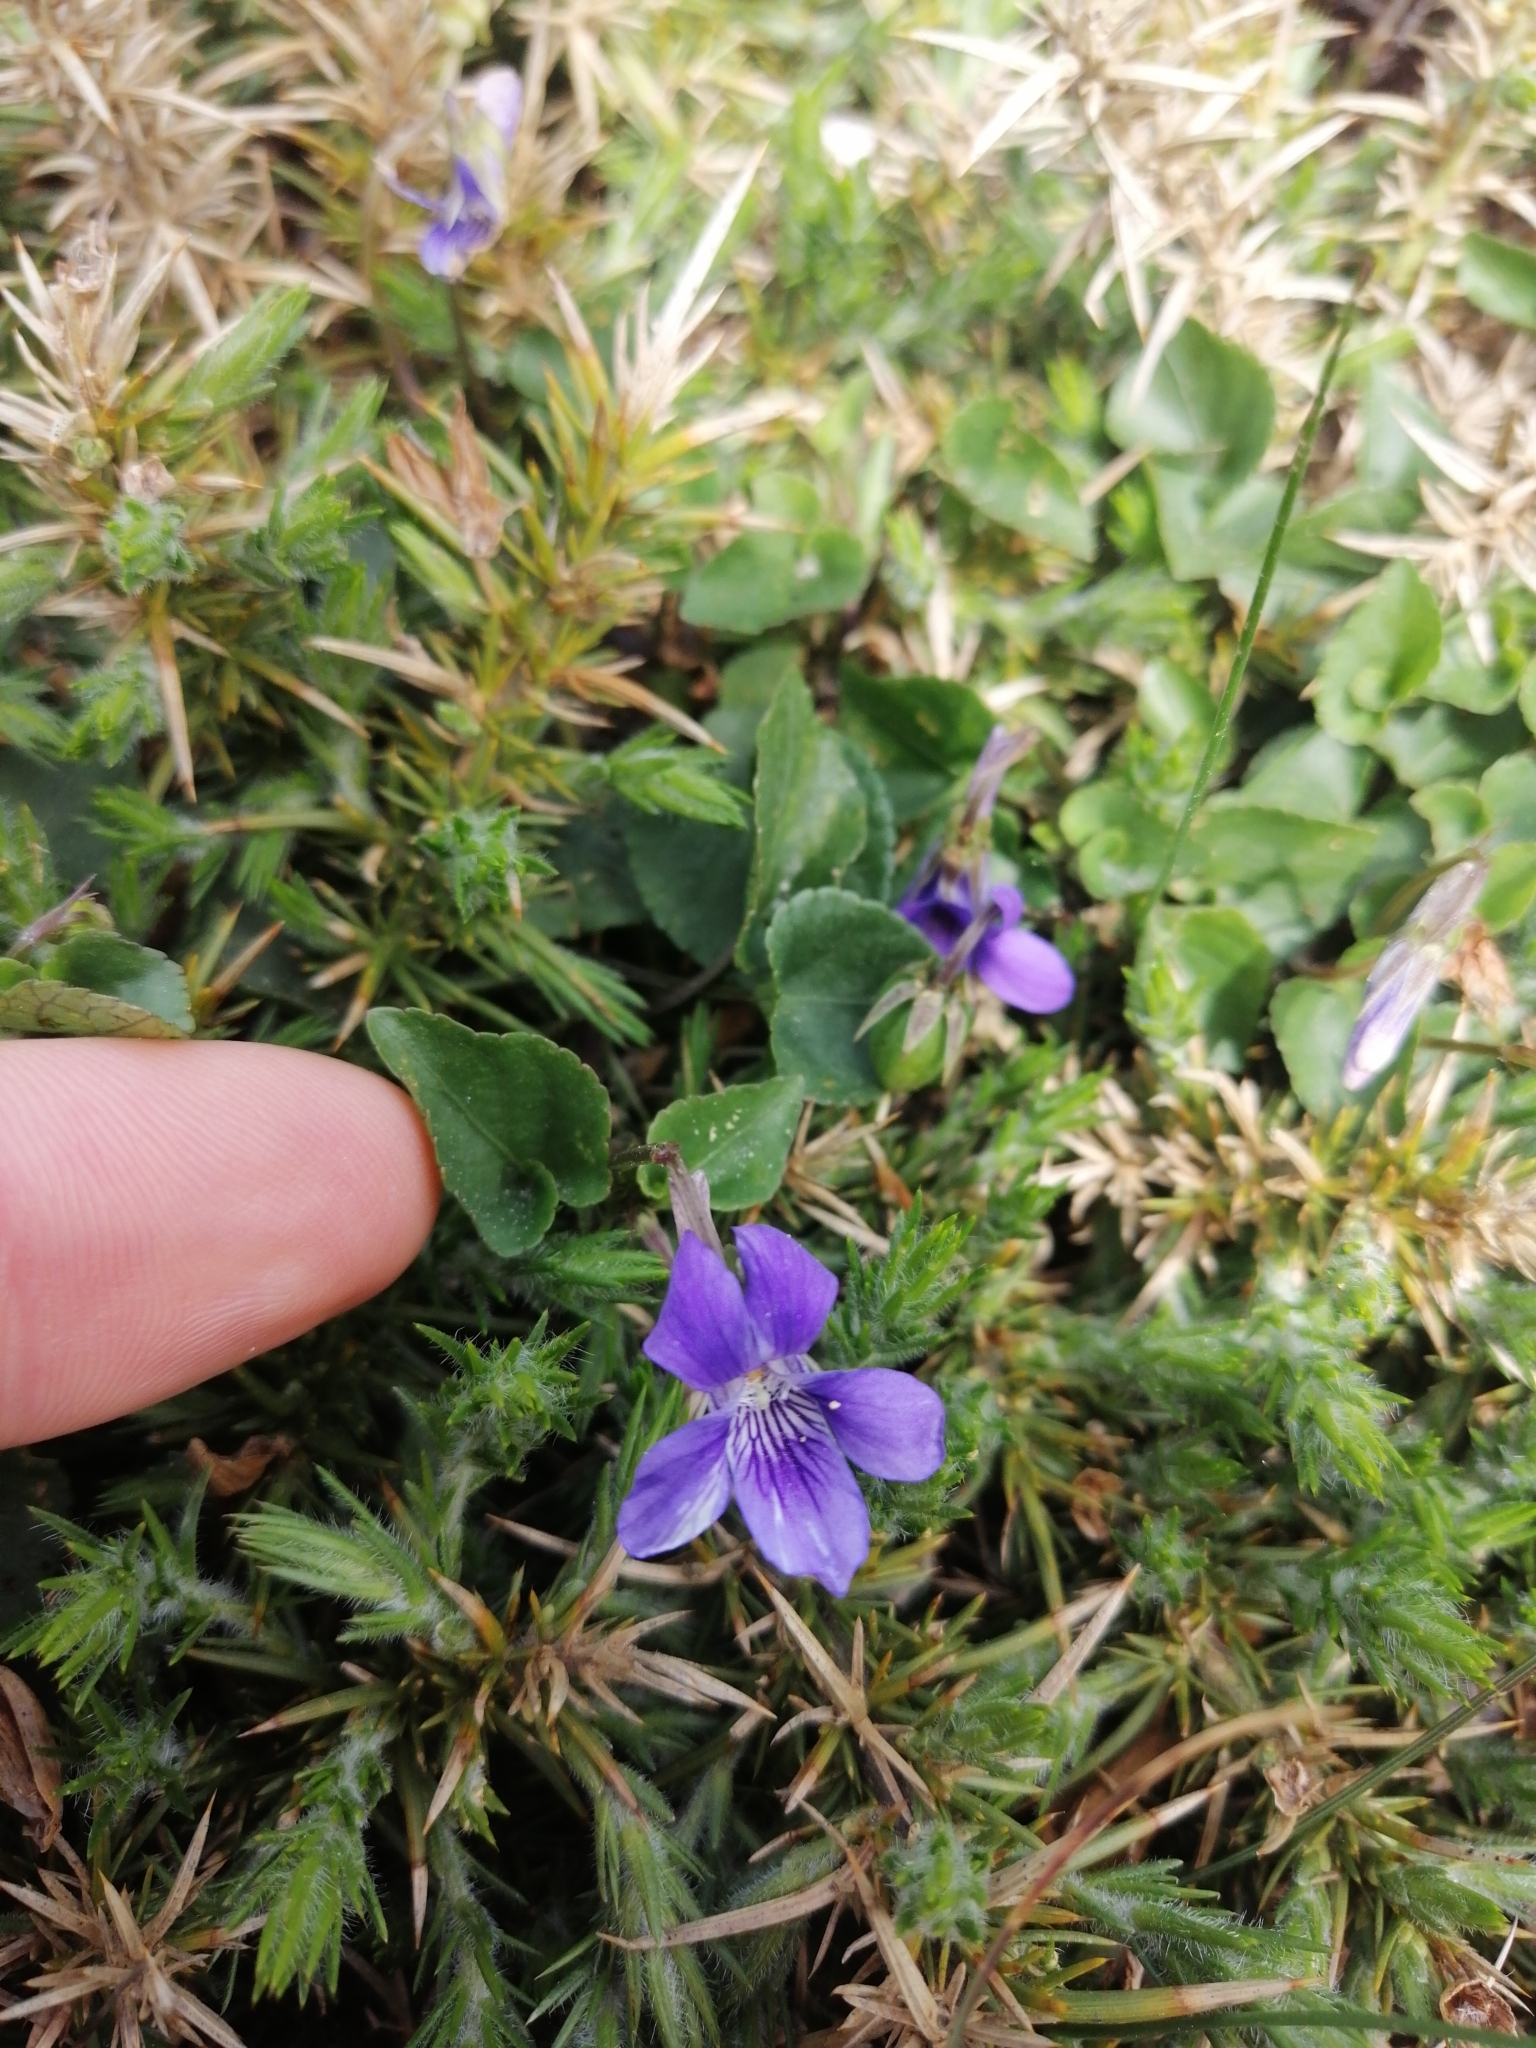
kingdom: Plantae
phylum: Tracheophyta
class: Magnoliopsida
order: Malpighiales
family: Violaceae
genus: Viola
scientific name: Viola riviniana
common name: Common dog-violet
